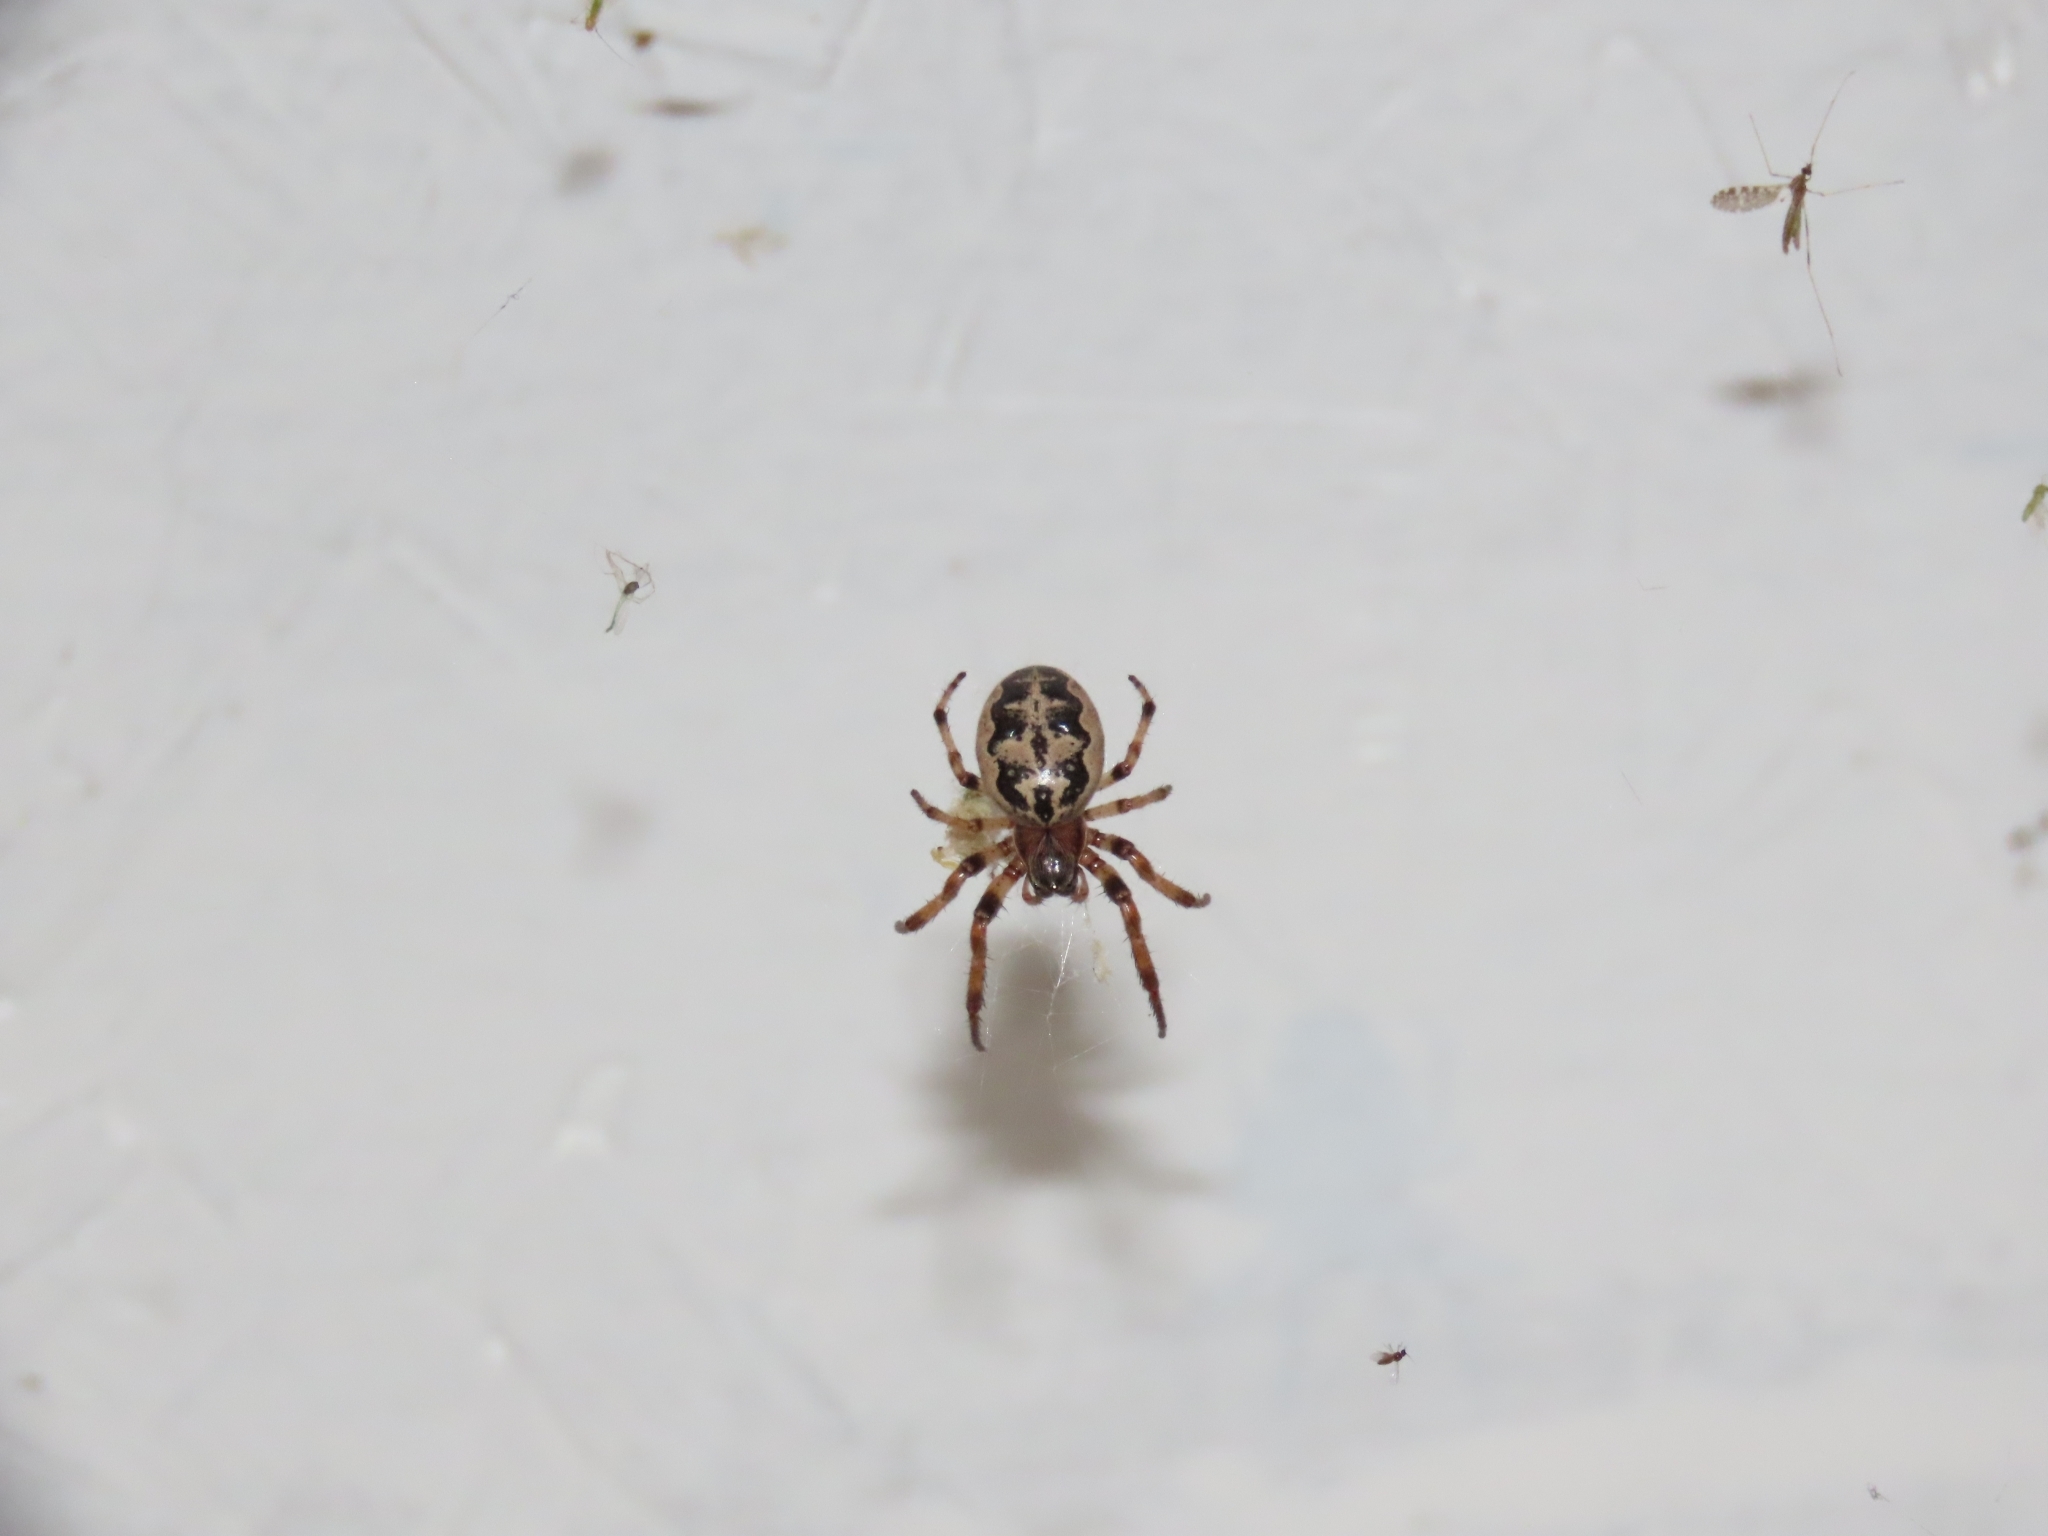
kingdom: Animalia
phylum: Arthropoda
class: Arachnida
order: Araneae
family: Araneidae
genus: Larinioides
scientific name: Larinioides cornutus
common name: Furrow orbweaver
